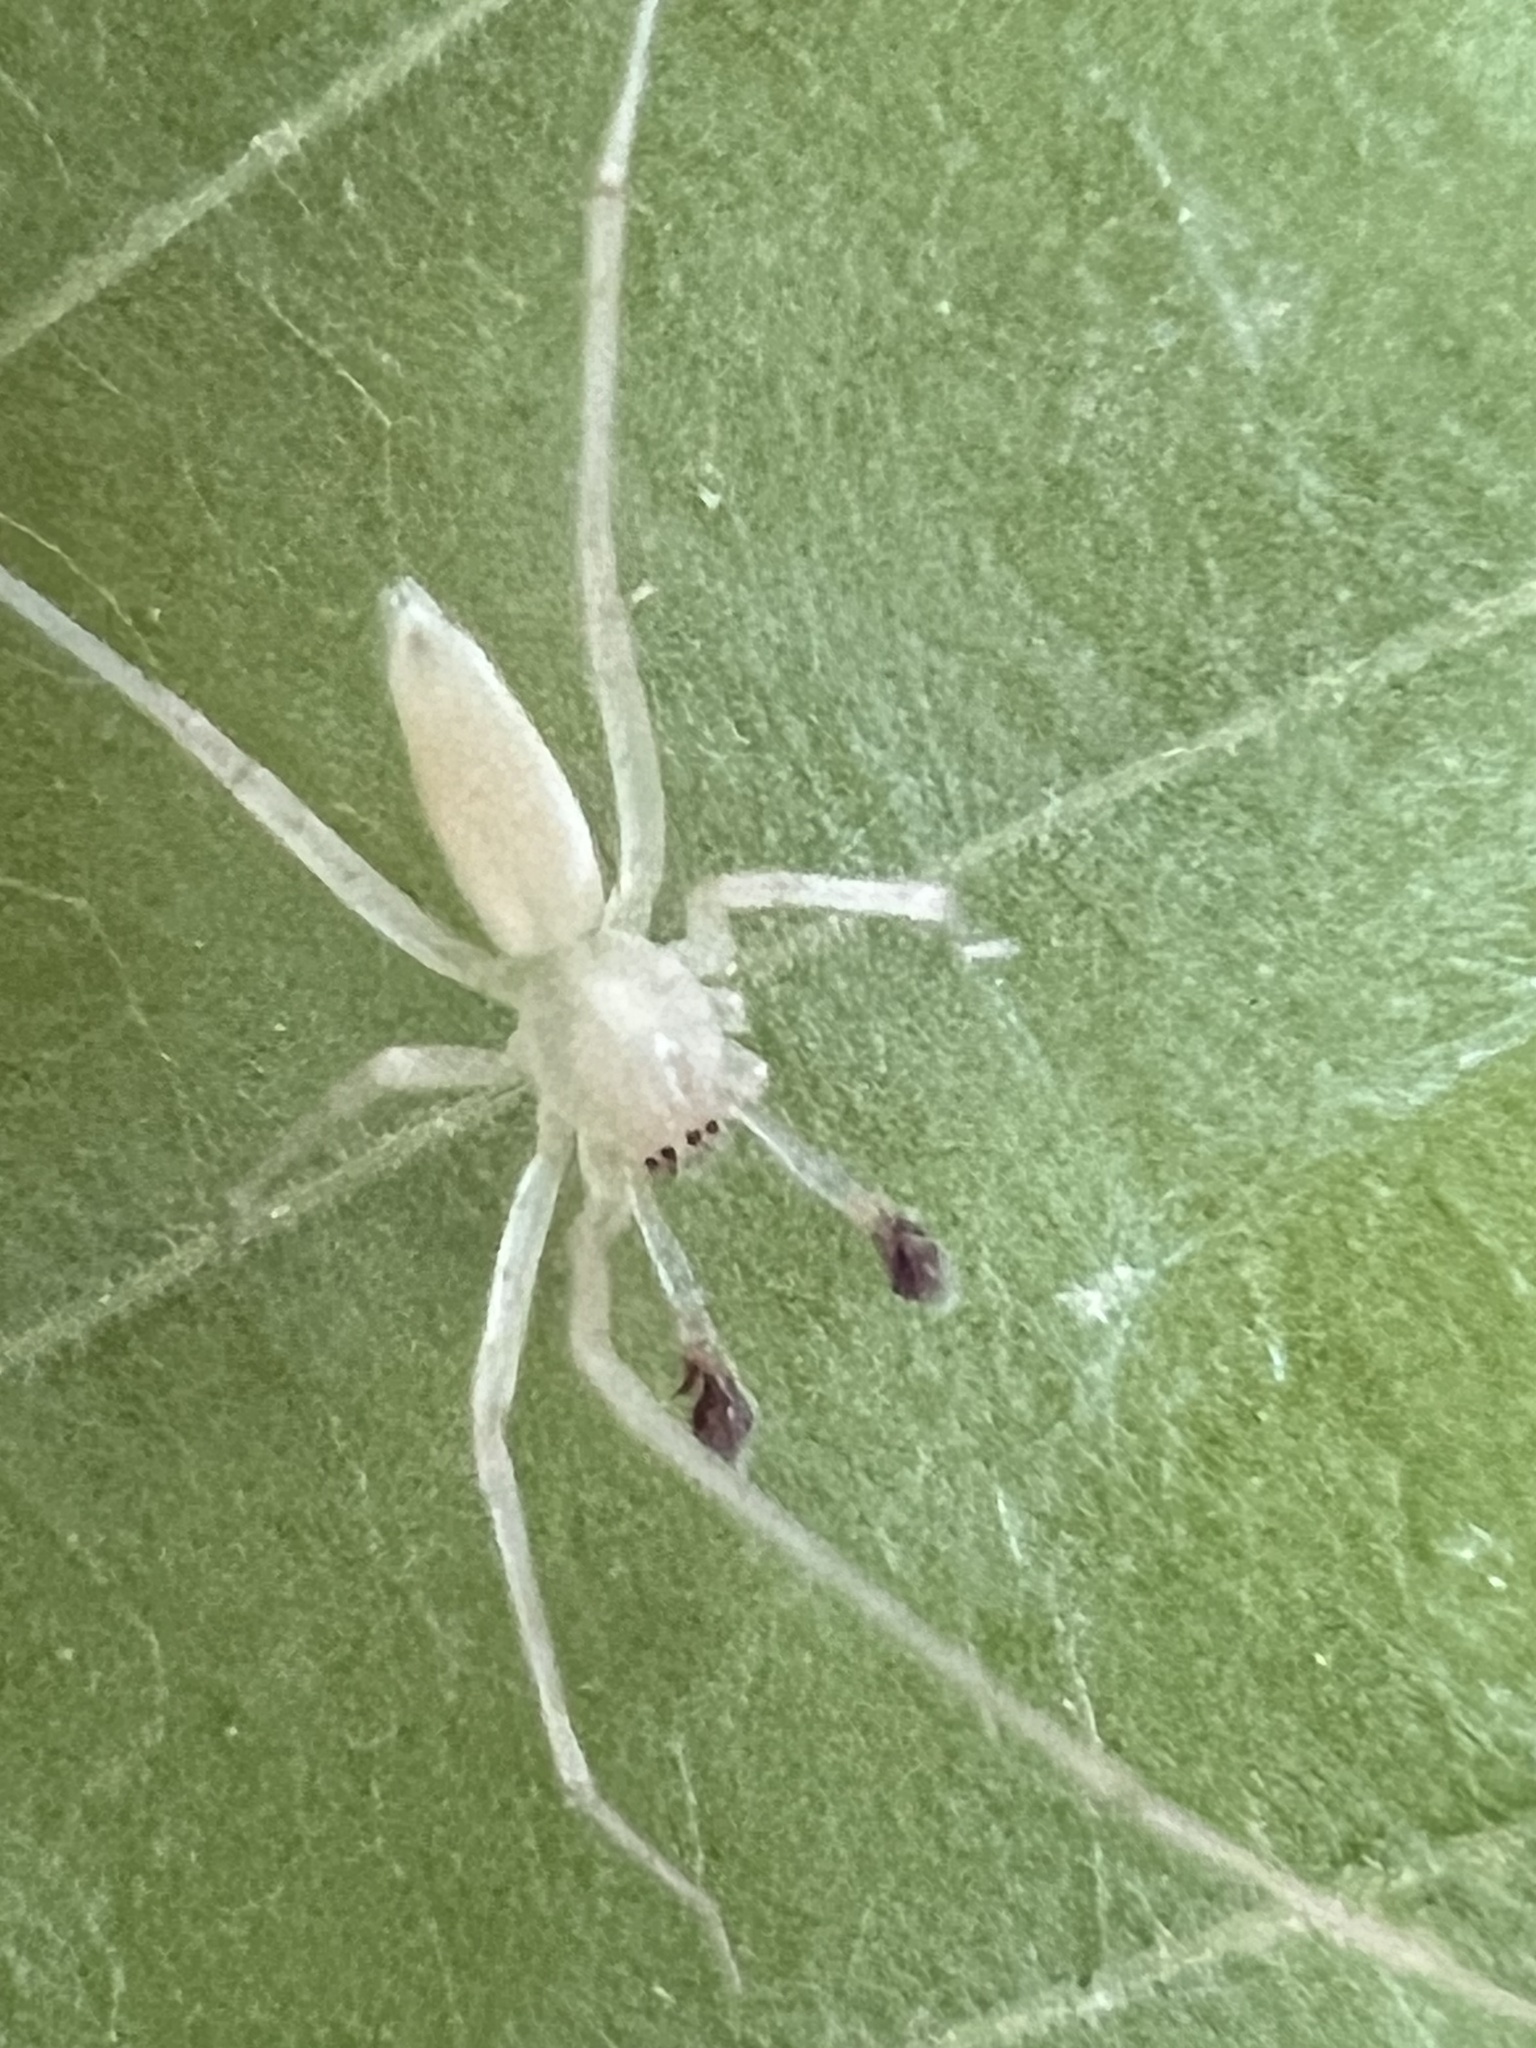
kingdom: Animalia
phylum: Arthropoda
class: Arachnida
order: Araneae
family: Anyphaenidae
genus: Wulfila
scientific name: Wulfila albens
